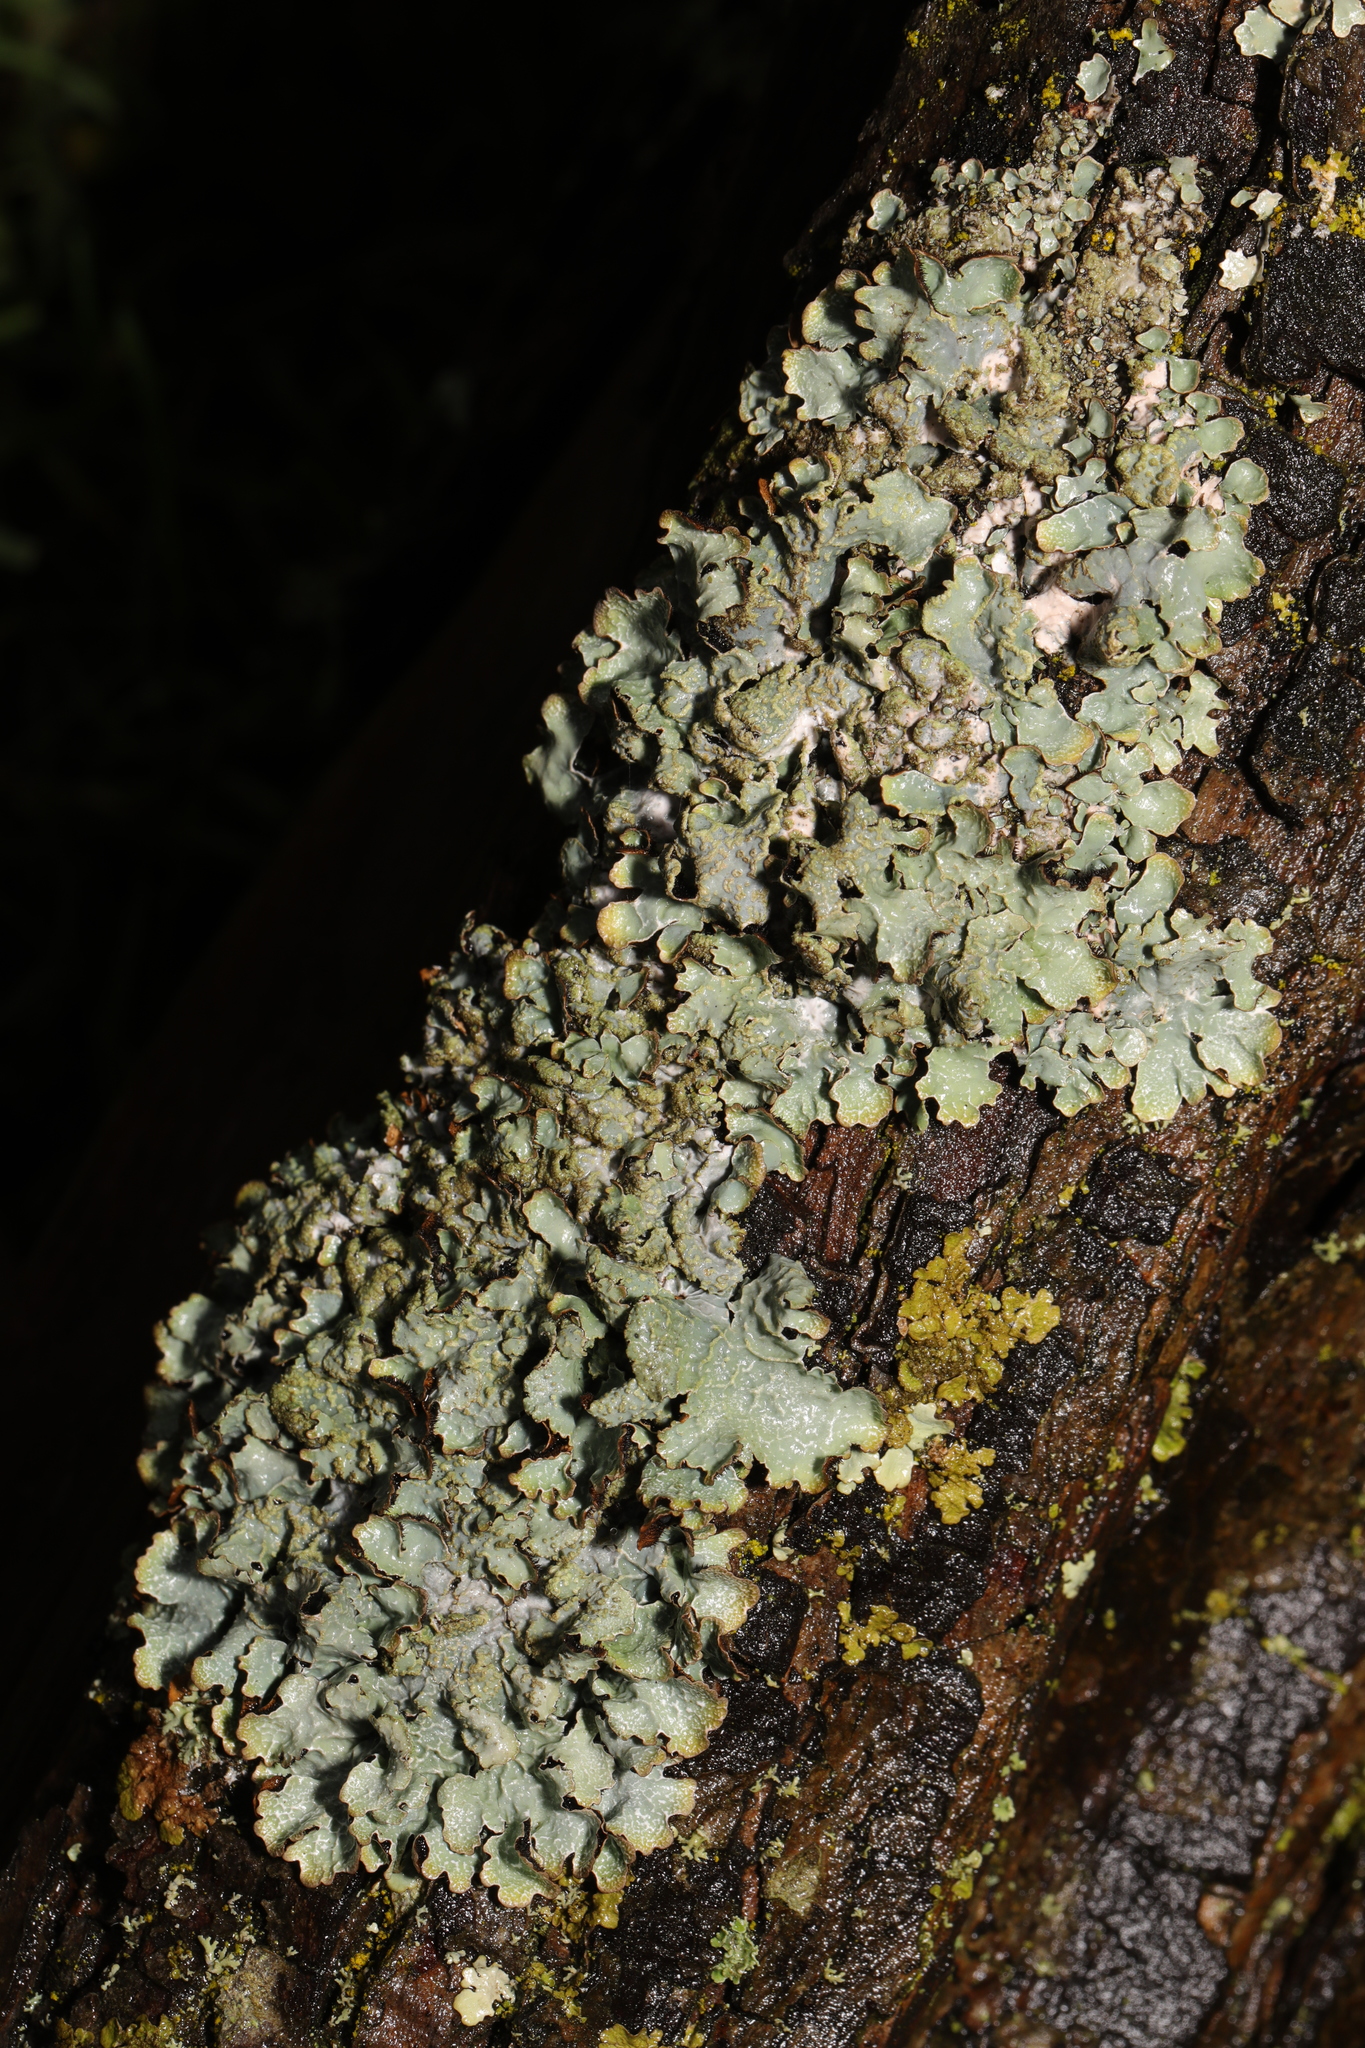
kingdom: Fungi
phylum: Ascomycota
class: Lecanoromycetes
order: Lecanorales
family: Parmeliaceae
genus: Parmelia
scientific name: Parmelia sulcata
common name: Netted shield lichen
